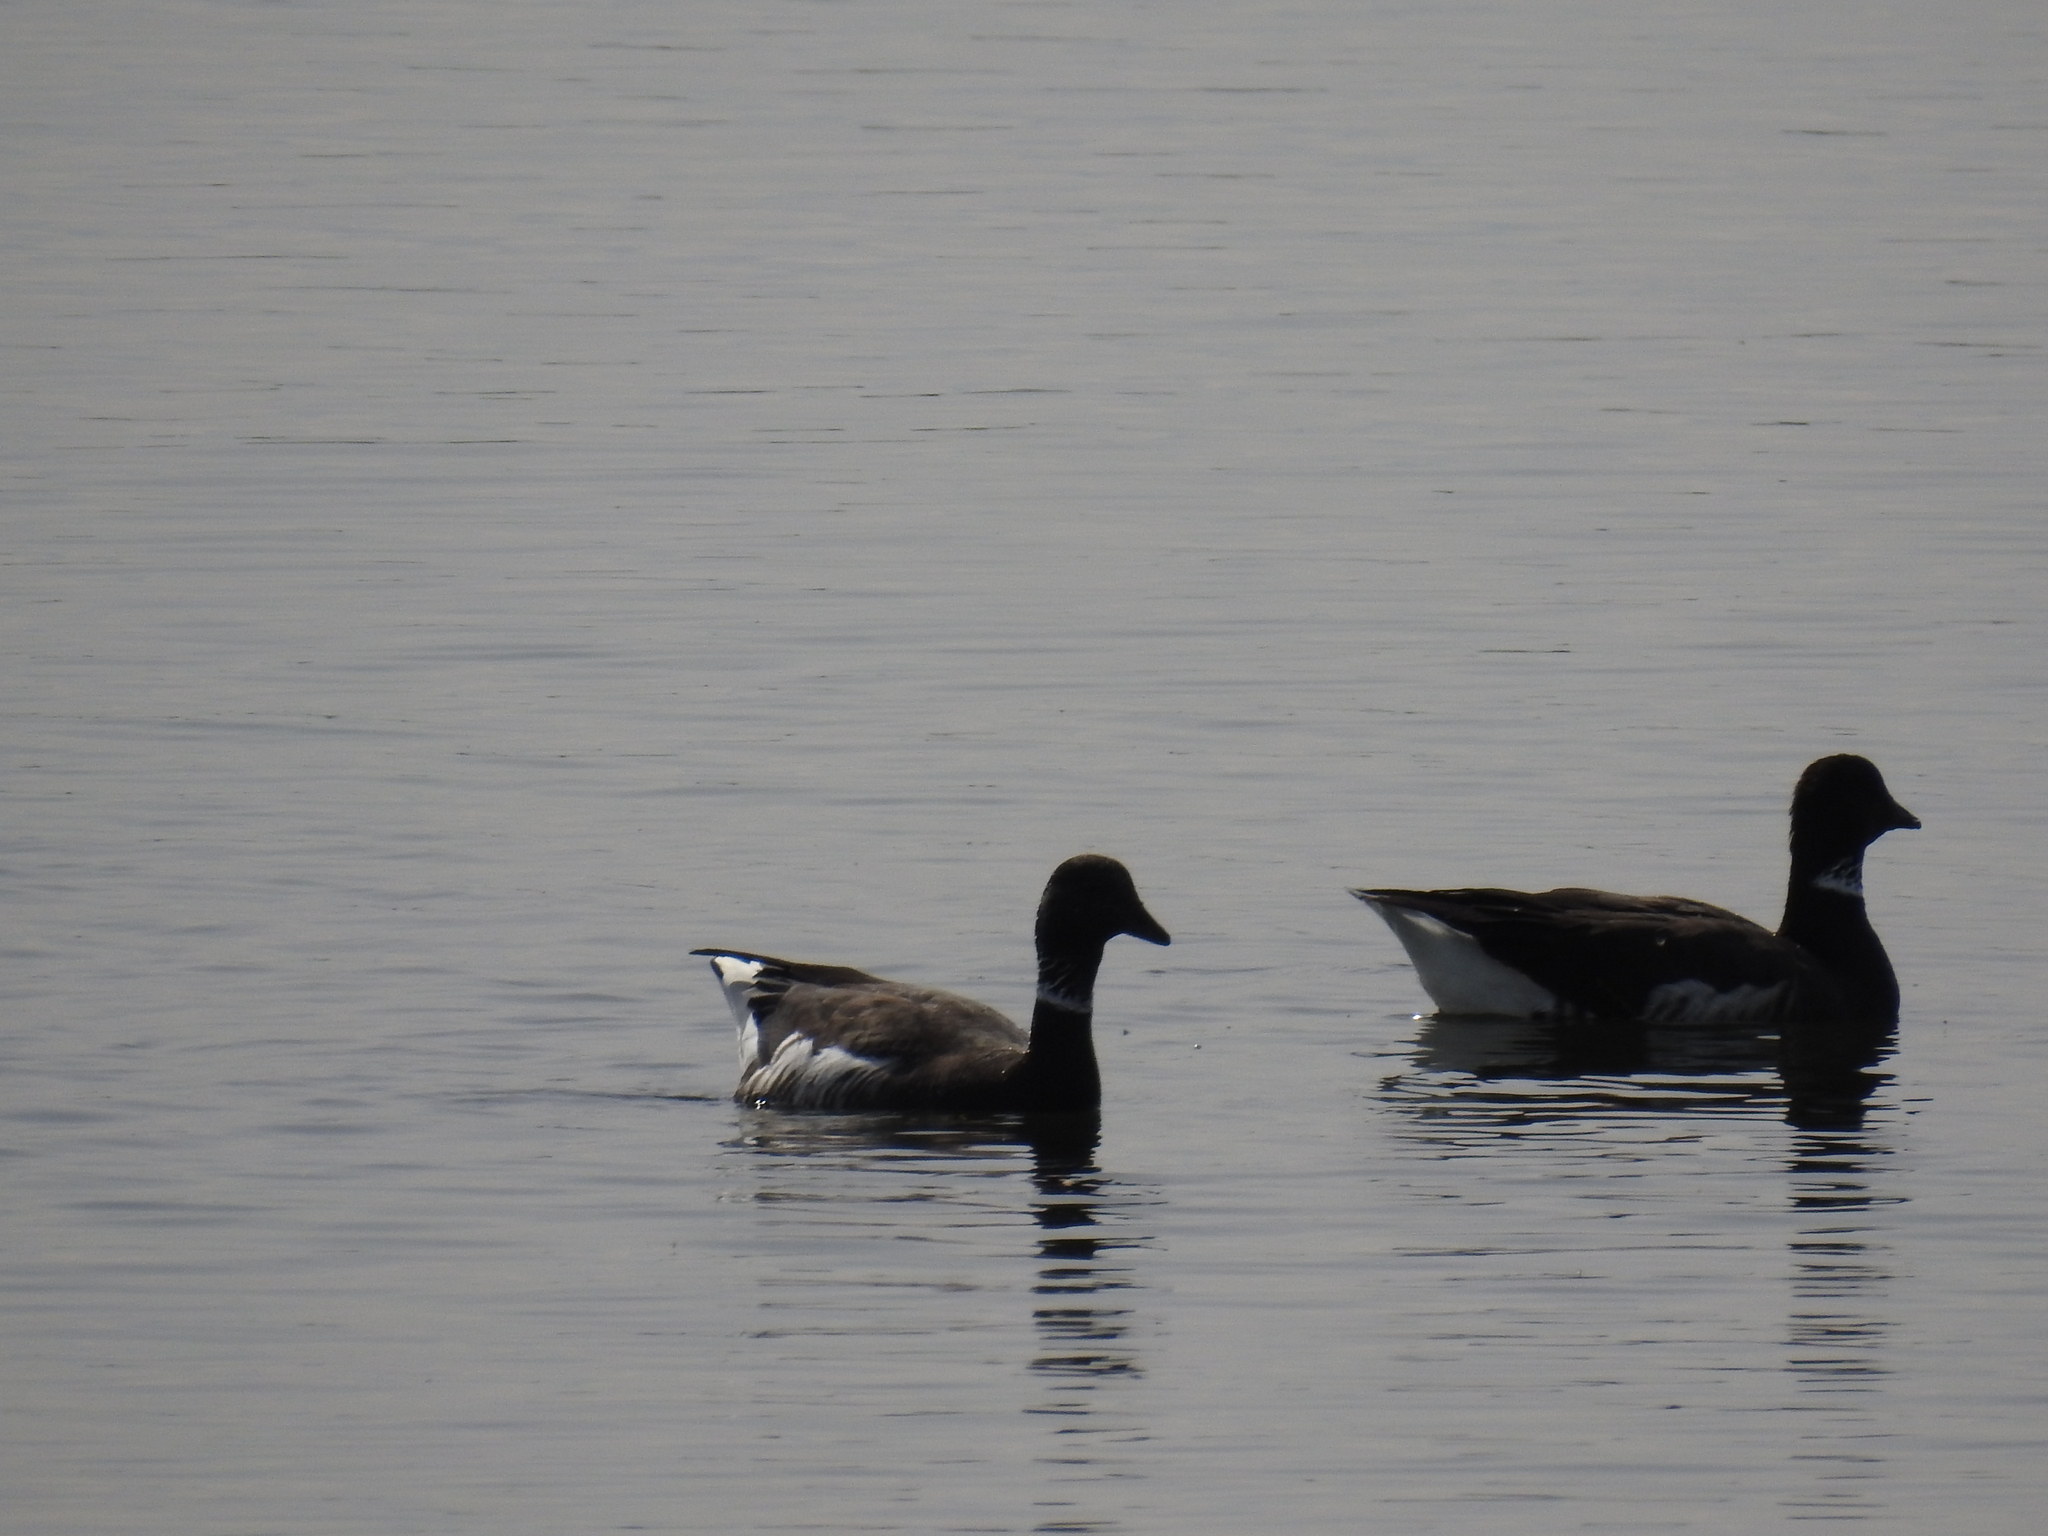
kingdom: Animalia
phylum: Chordata
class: Aves
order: Anseriformes
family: Anatidae
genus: Branta
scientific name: Branta bernicla
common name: Brant goose
